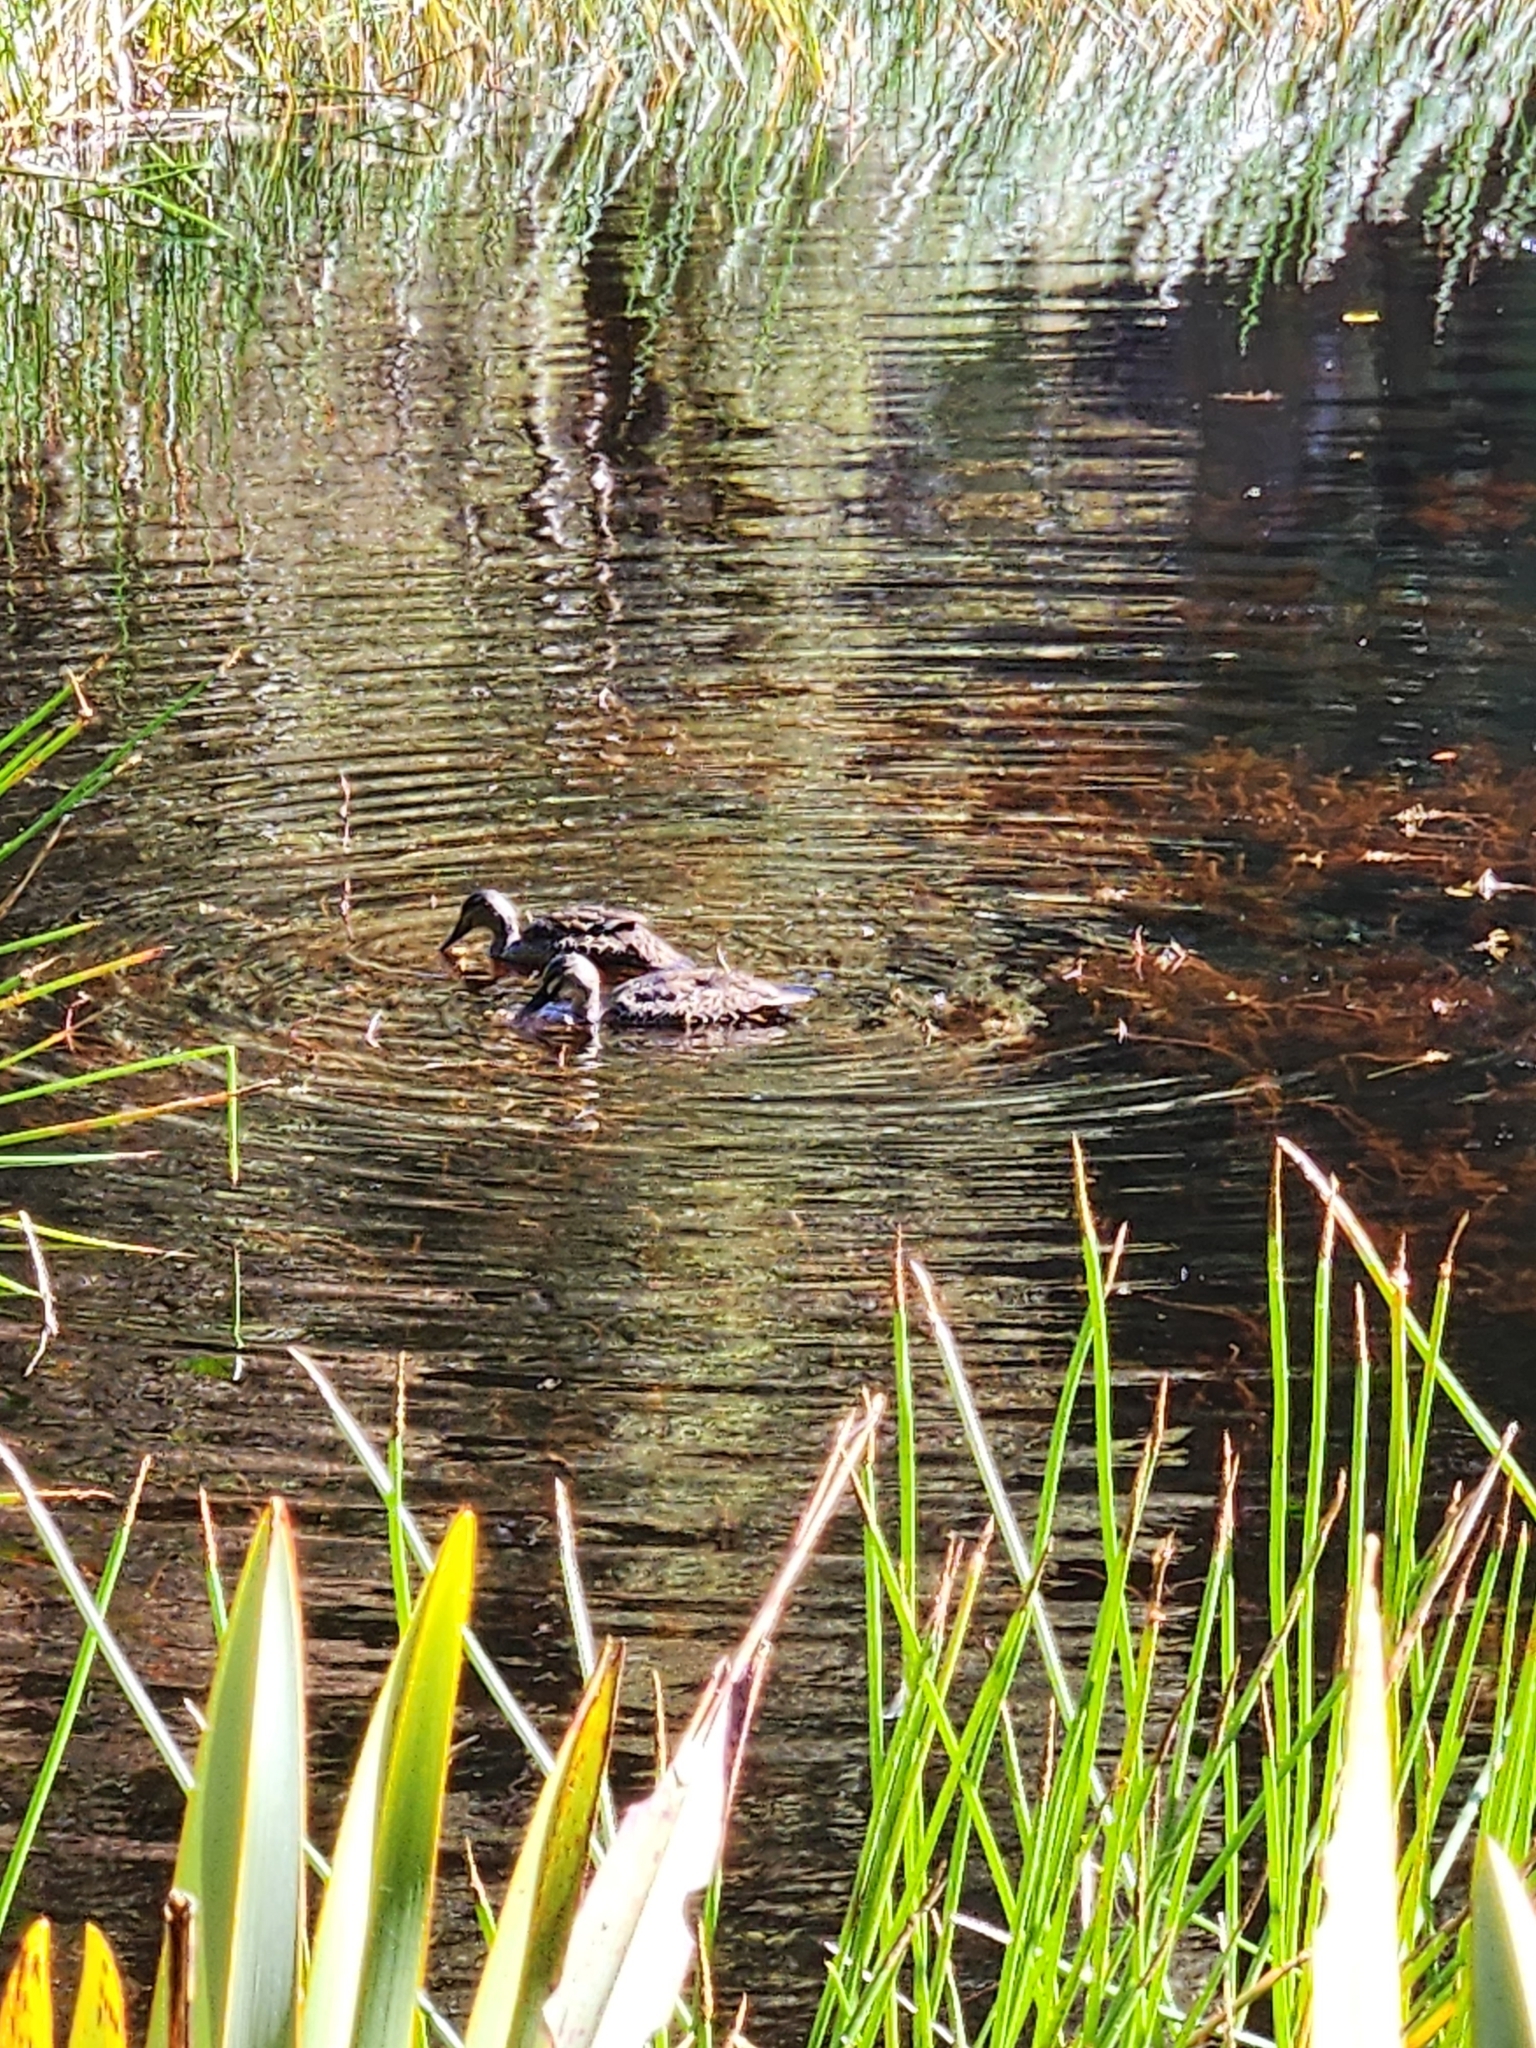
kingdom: Animalia
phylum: Chordata
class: Aves
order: Anseriformes
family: Anatidae
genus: Anas
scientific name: Anas
